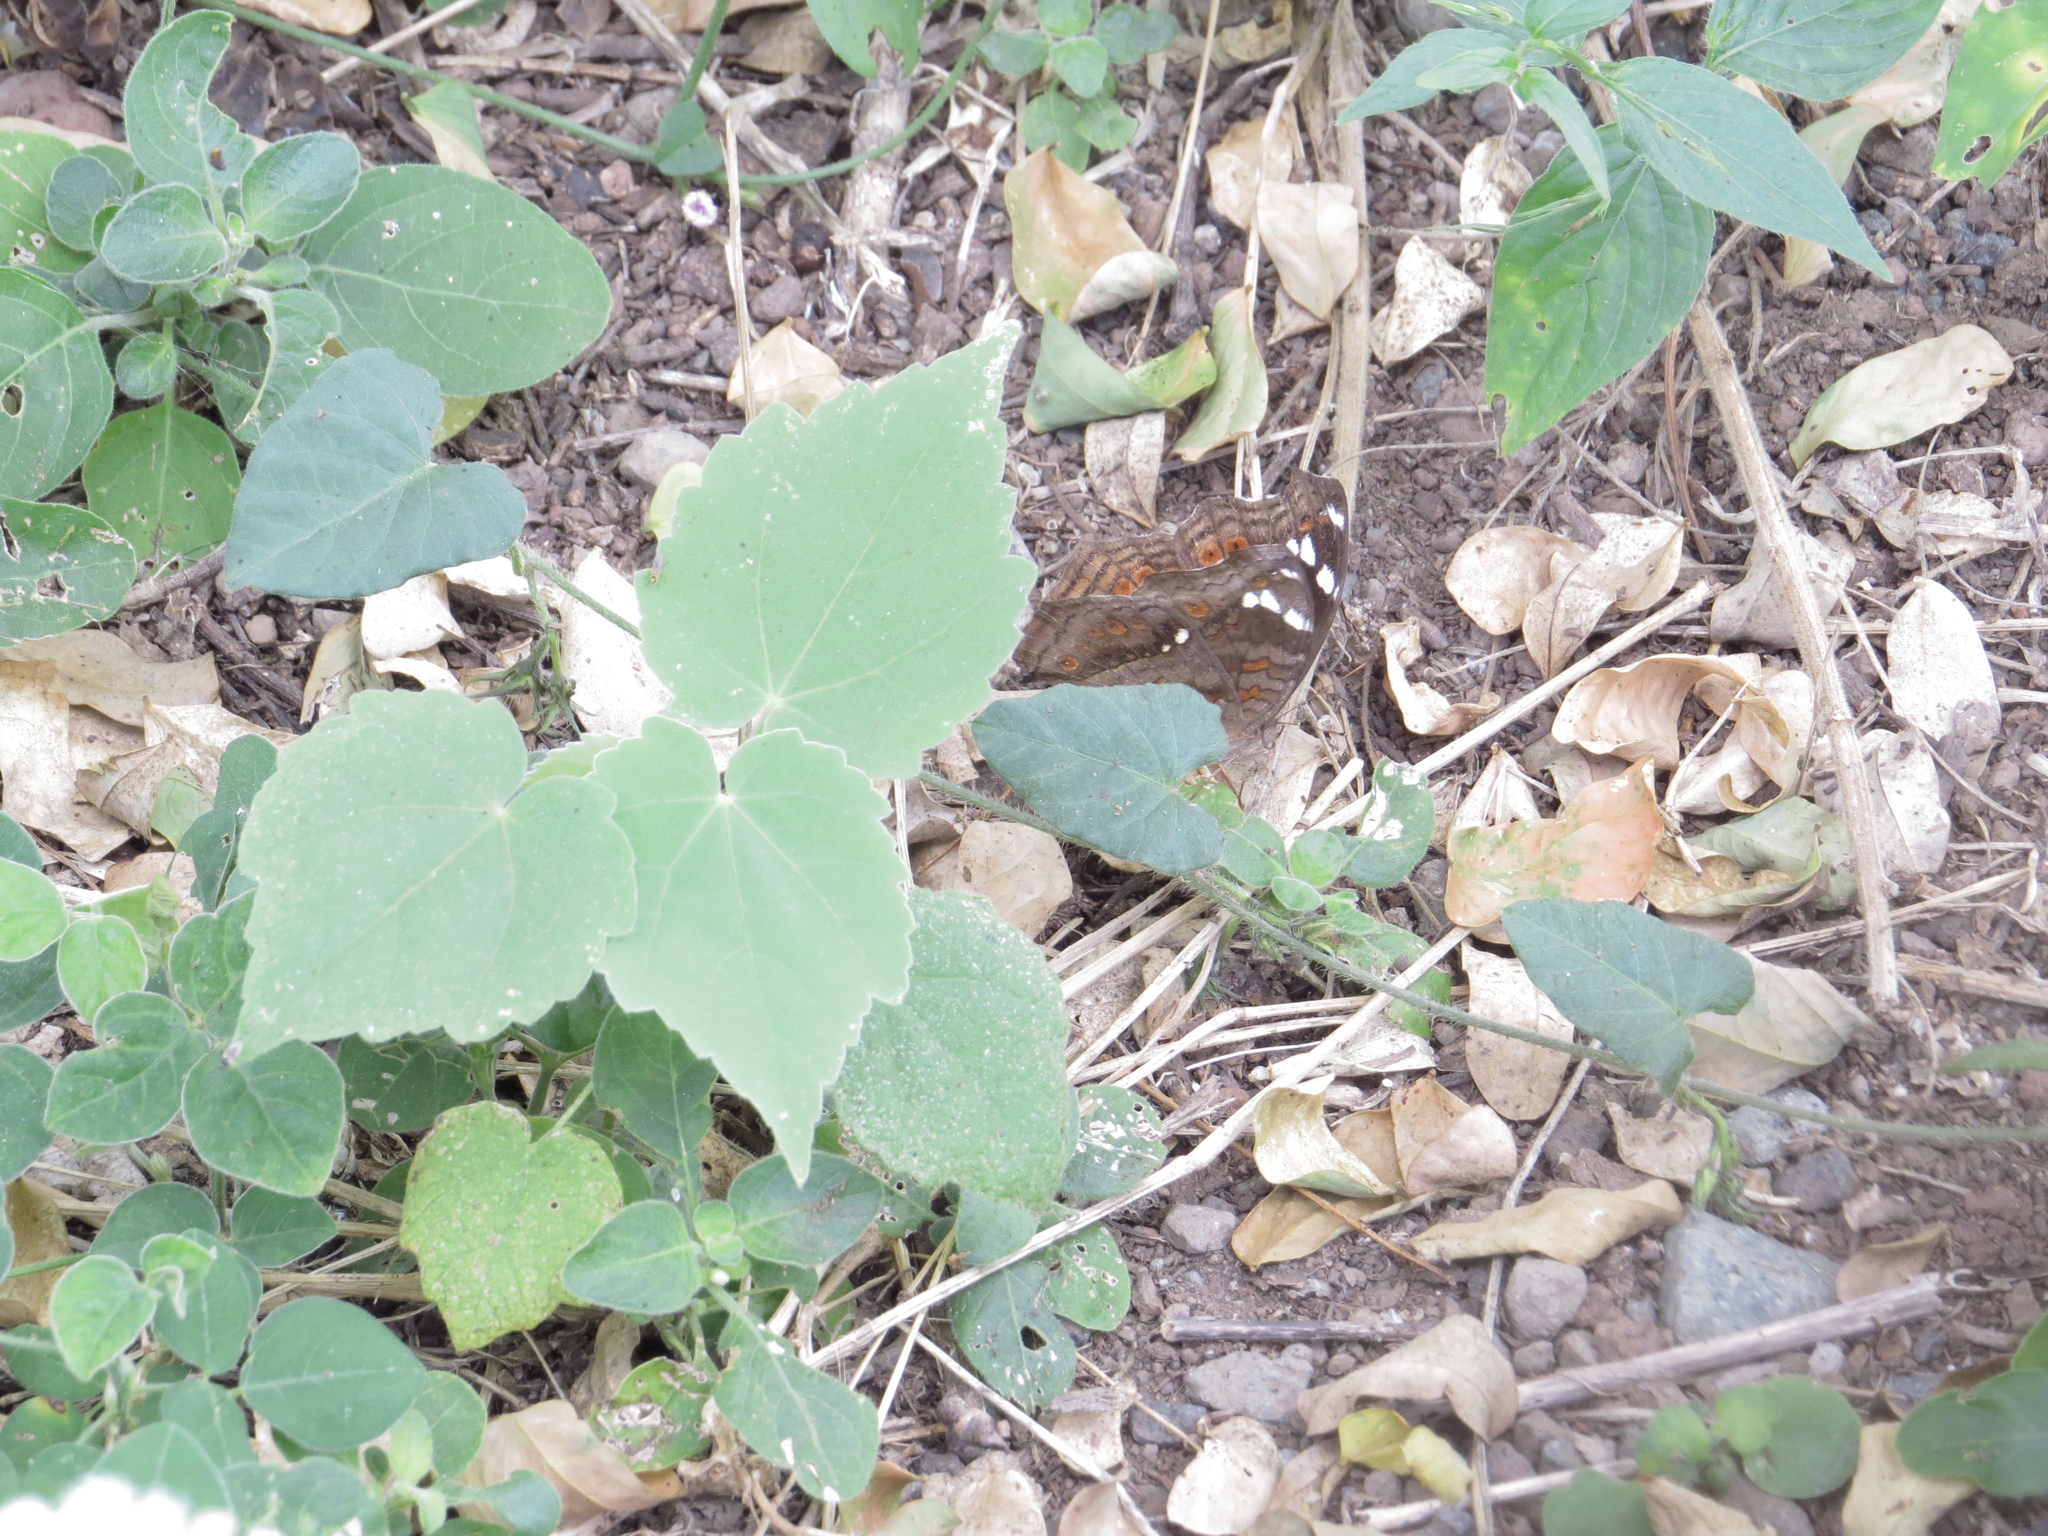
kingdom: Animalia
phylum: Arthropoda
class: Insecta
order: Lepidoptera
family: Nymphalidae
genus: Junonia
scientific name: Junonia natalica
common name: Brown pansy
